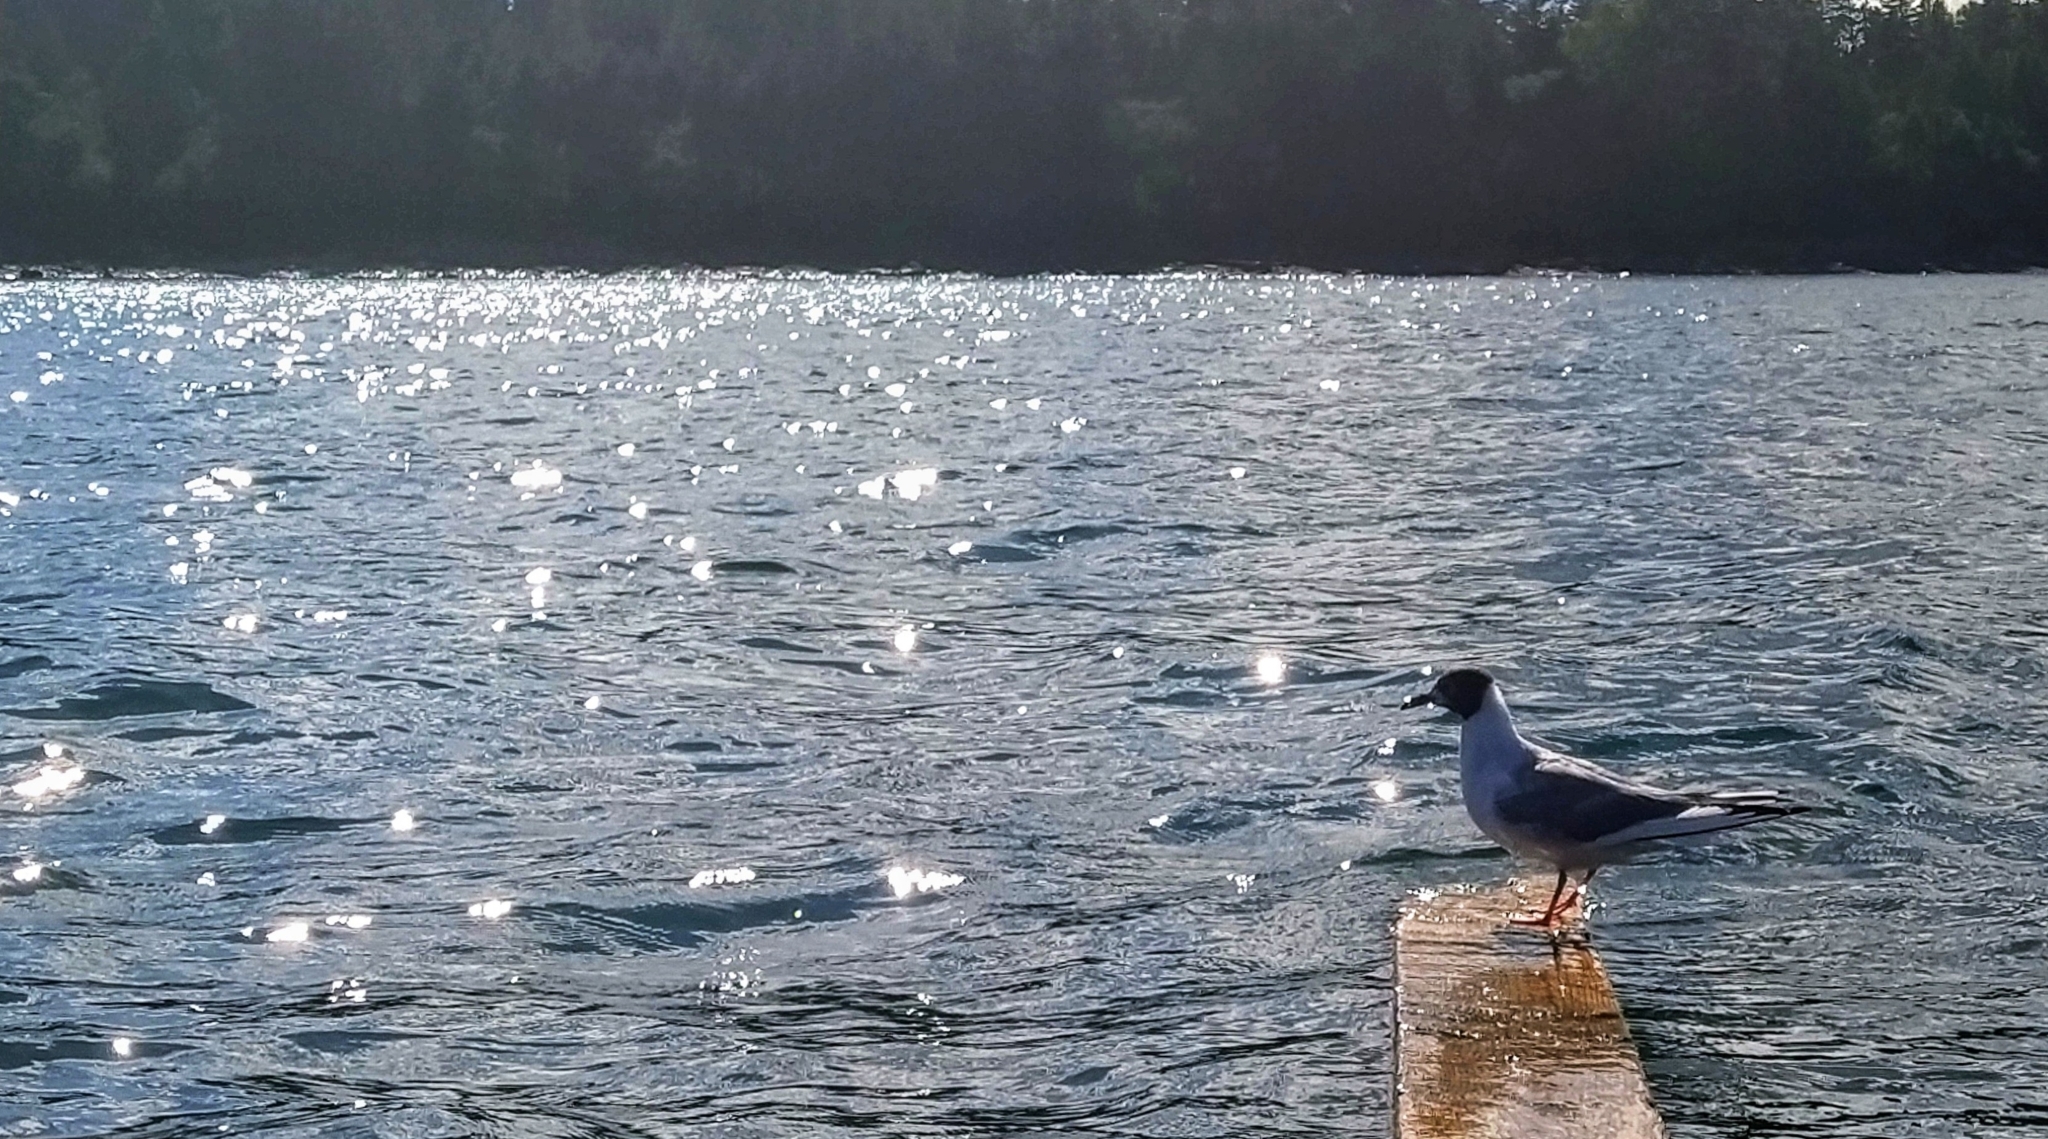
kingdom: Animalia
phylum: Chordata
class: Aves
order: Charadriiformes
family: Laridae
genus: Chroicocephalus
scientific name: Chroicocephalus philadelphia
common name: Bonaparte's gull
